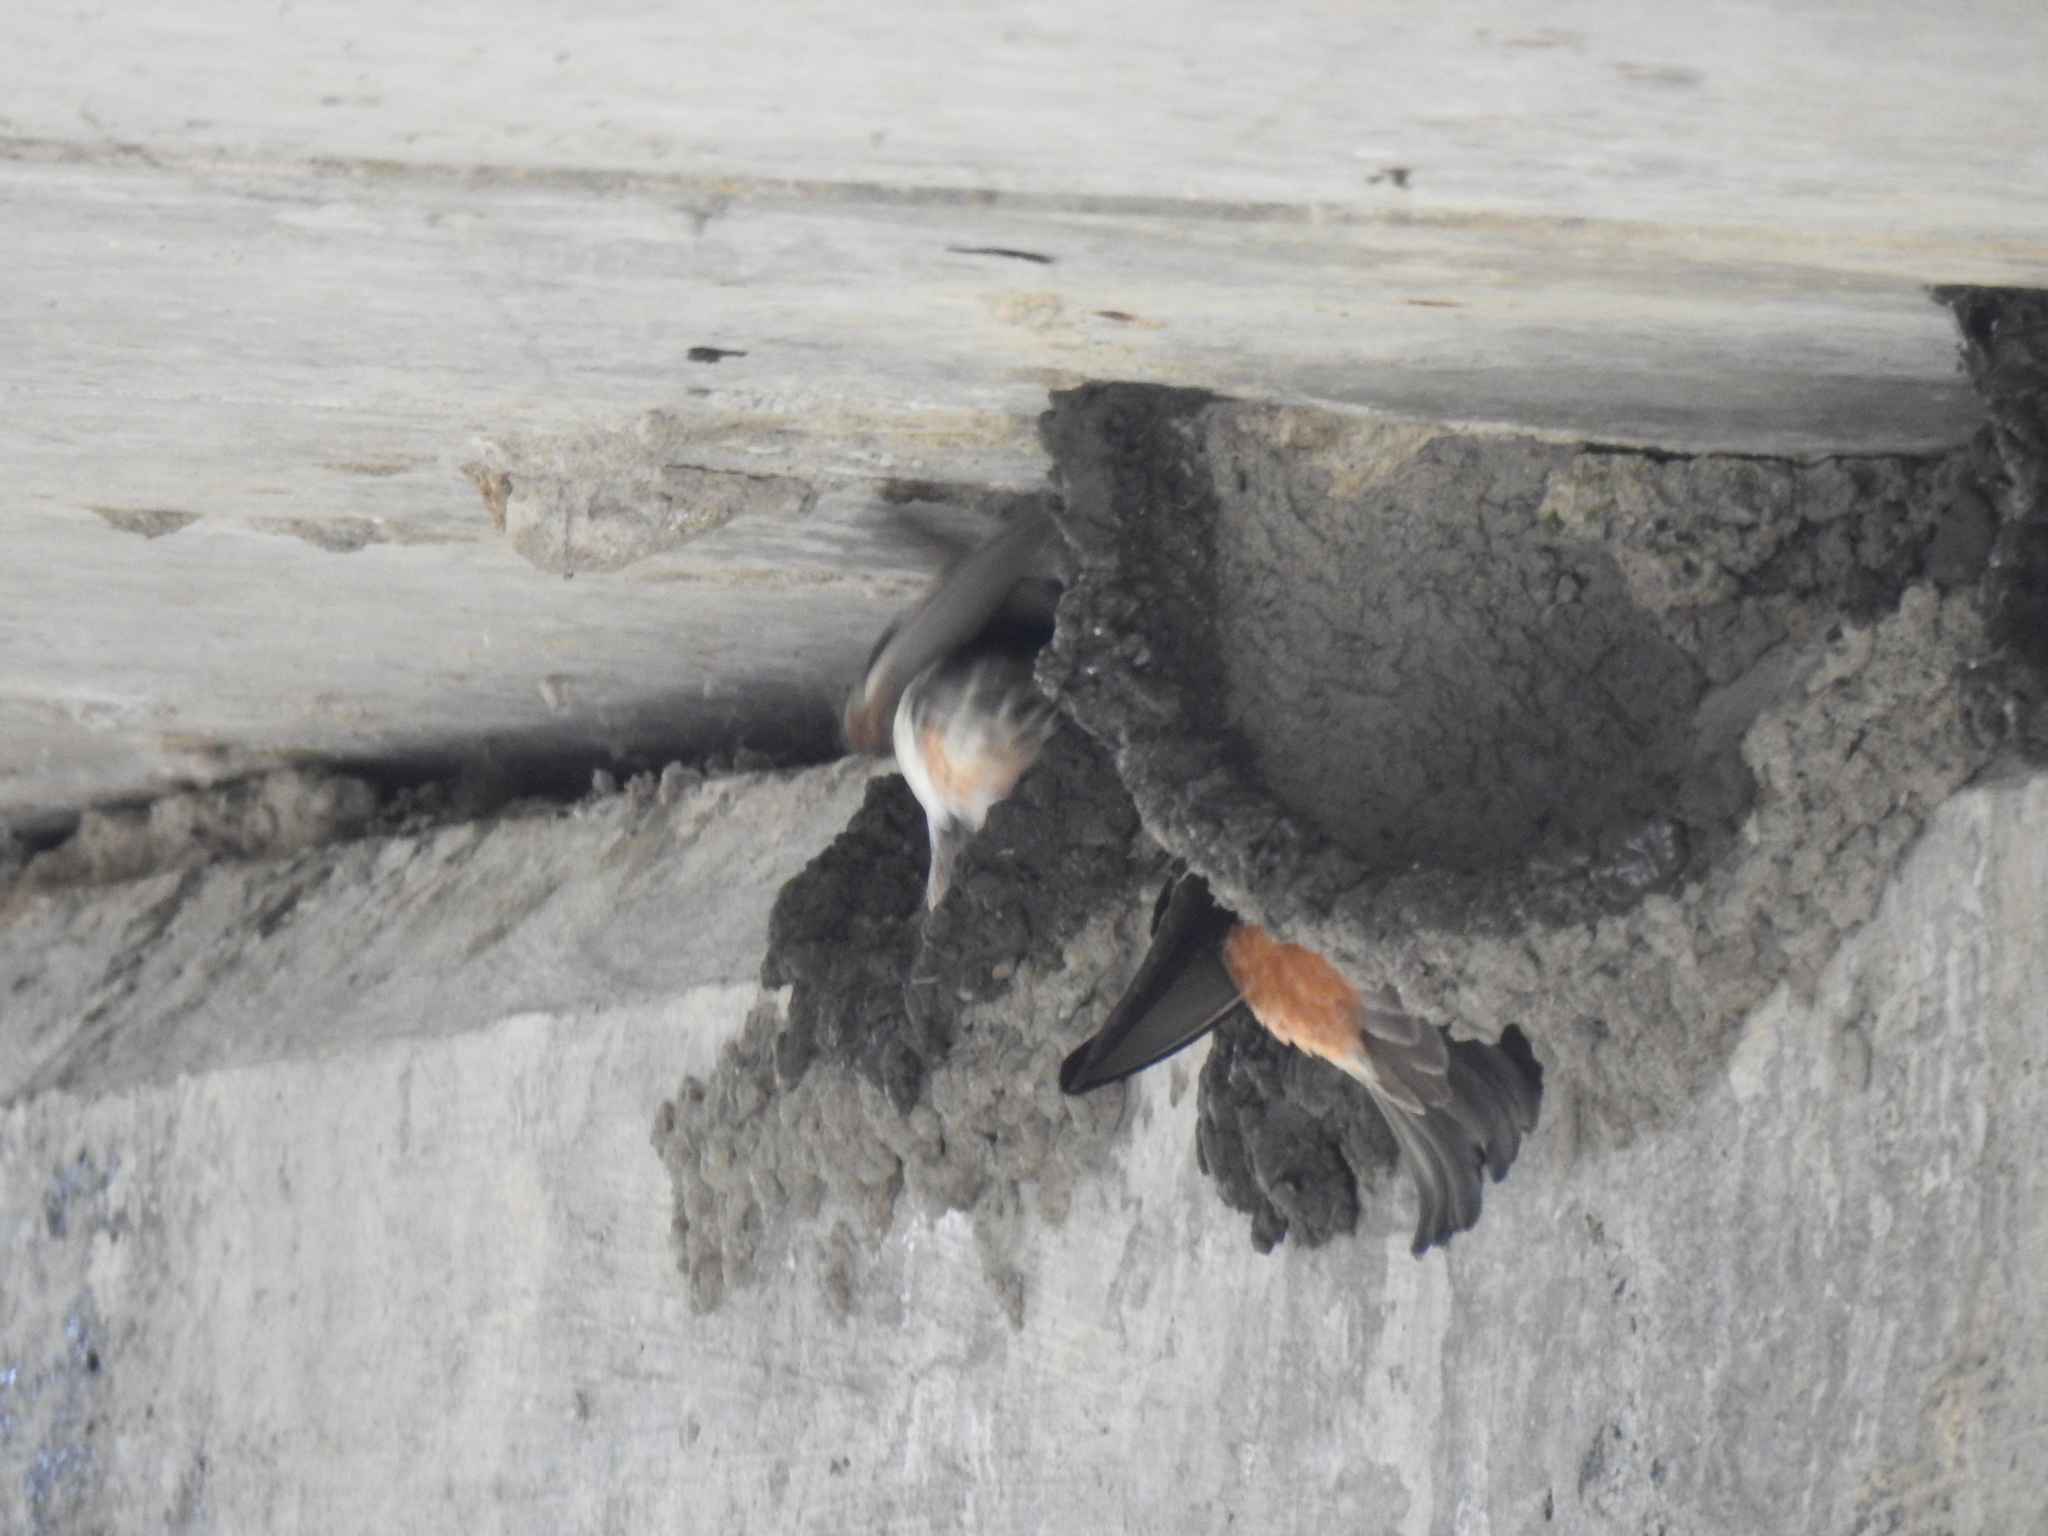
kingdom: Animalia
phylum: Chordata
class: Aves
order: Passeriformes
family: Hirundinidae
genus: Petrochelidon
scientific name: Petrochelidon pyrrhonota
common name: American cliff swallow
